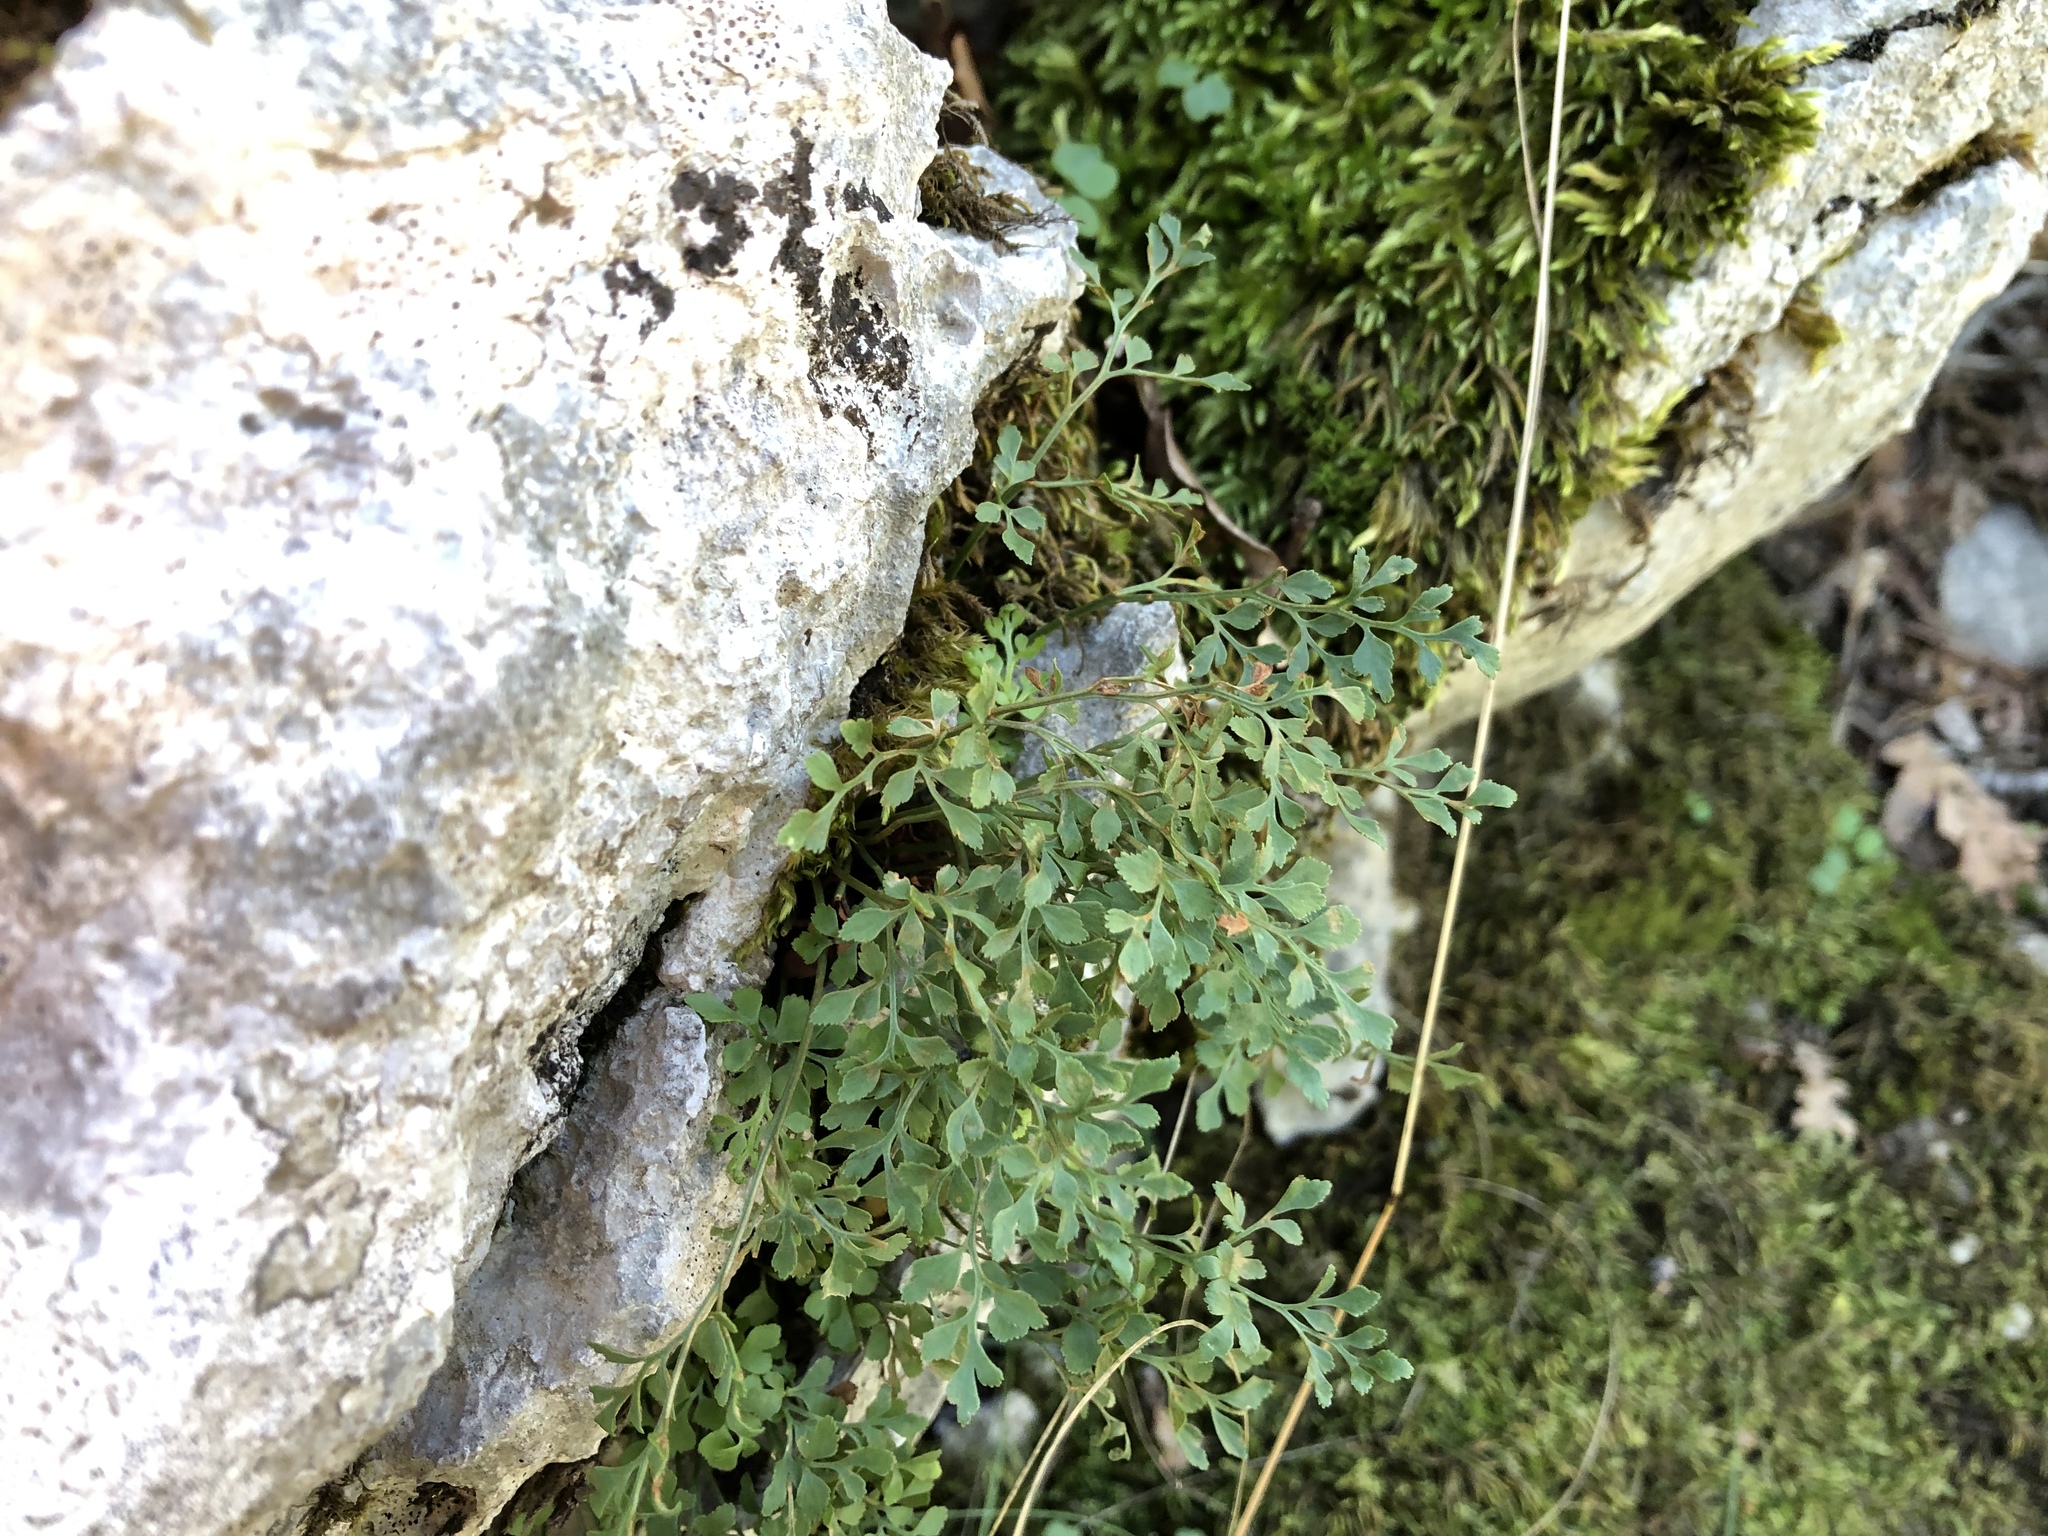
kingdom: Plantae
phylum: Tracheophyta
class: Polypodiopsida
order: Polypodiales
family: Aspleniaceae
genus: Asplenium
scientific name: Asplenium ruta-muraria
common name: Wall-rue
